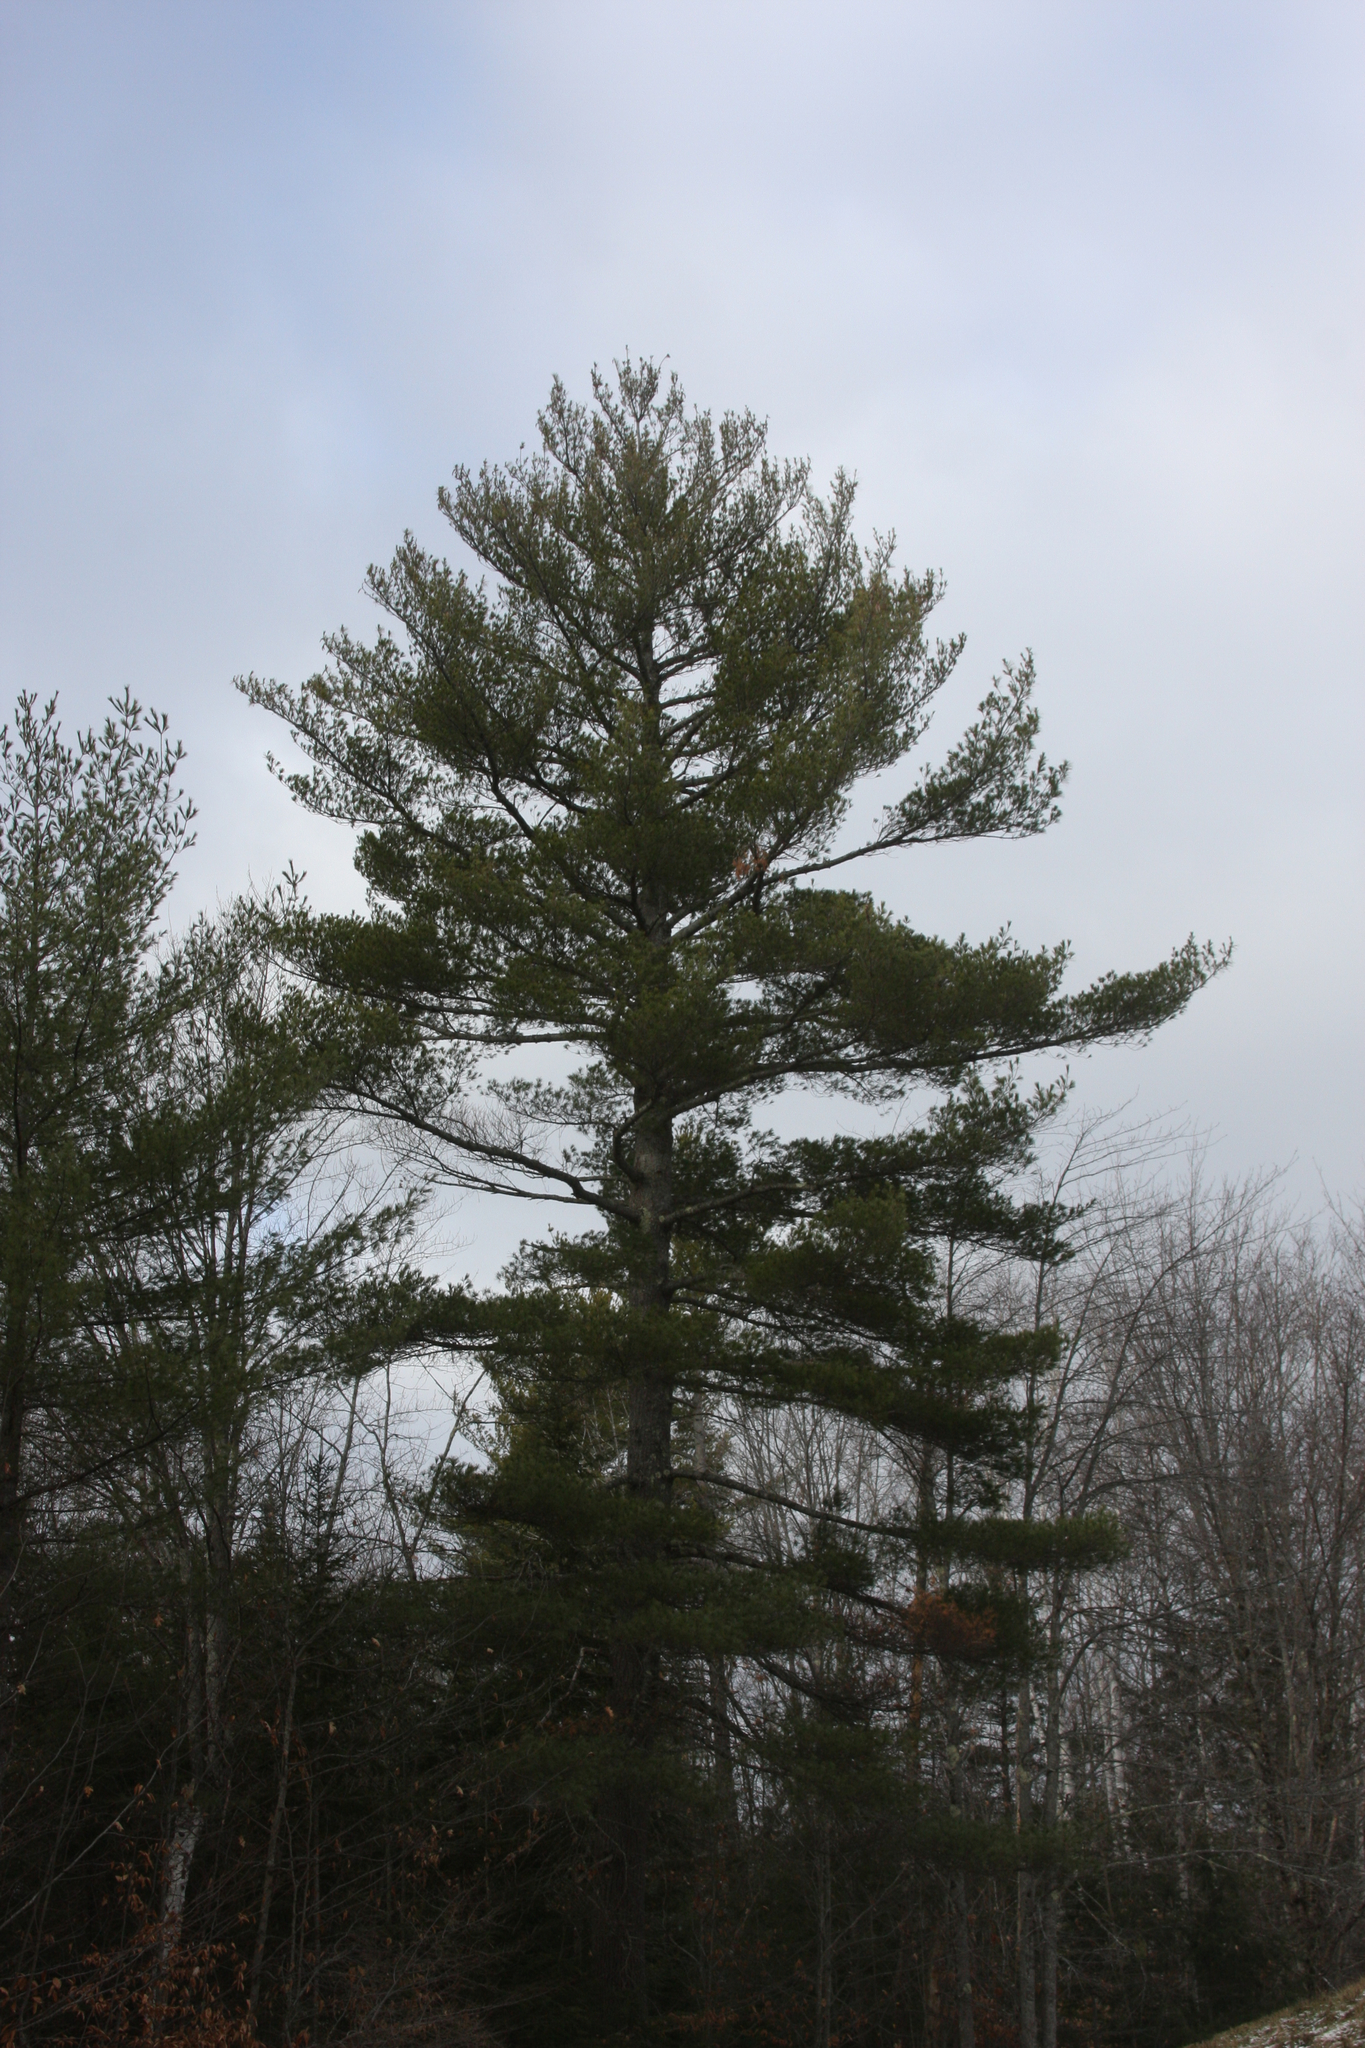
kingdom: Plantae
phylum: Tracheophyta
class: Pinopsida
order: Pinales
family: Pinaceae
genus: Pinus
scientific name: Pinus strobus
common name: Weymouth pine
